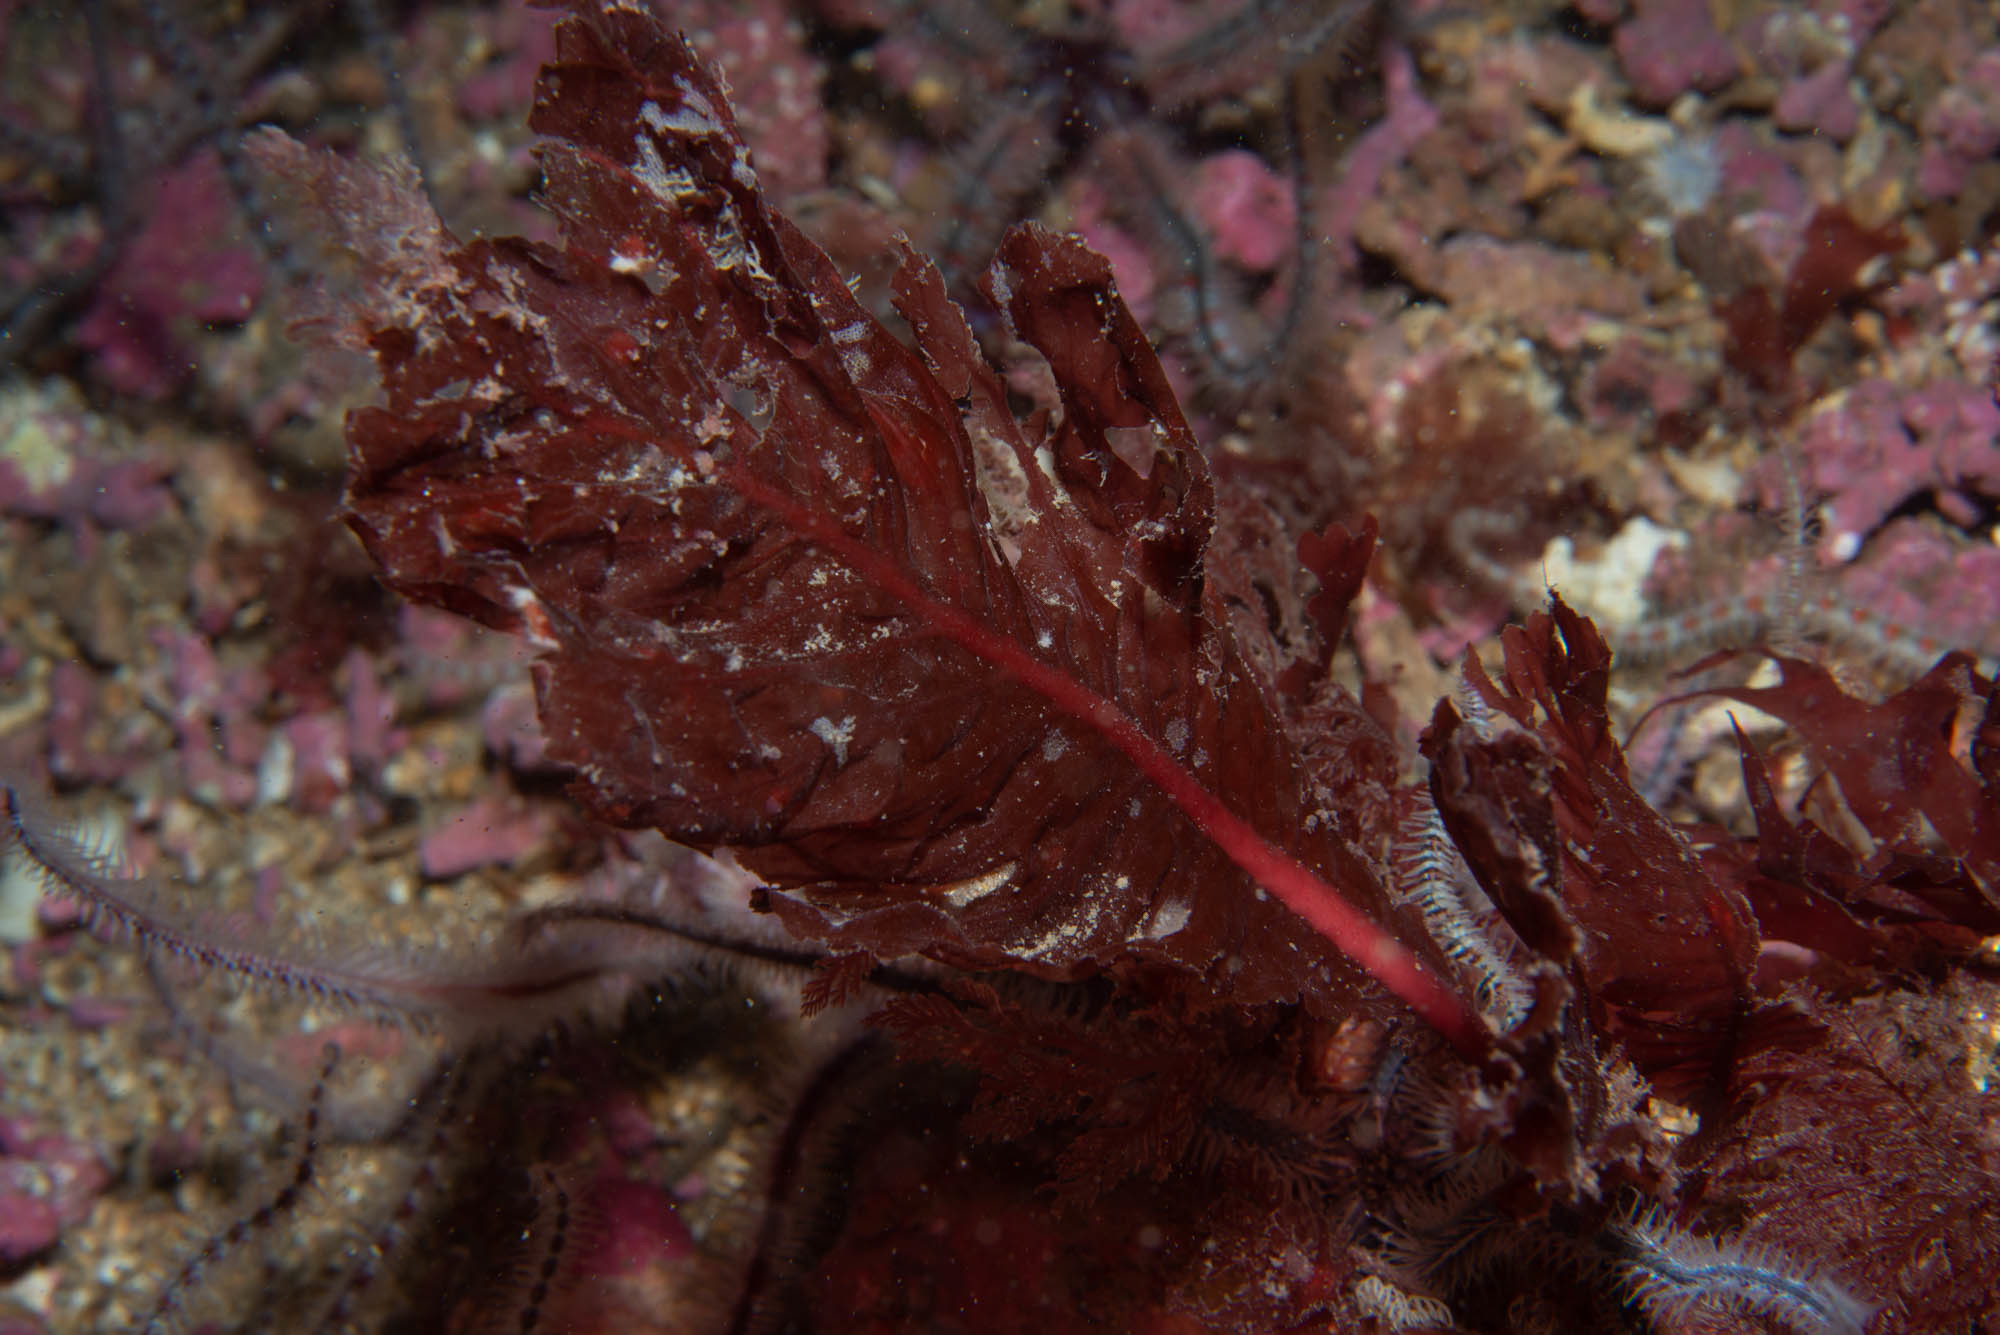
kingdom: Plantae
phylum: Rhodophyta
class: Florideophyceae
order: Ceramiales
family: Delesseriaceae
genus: Delesseria
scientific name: Delesseria sanguinea
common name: Sea beech
